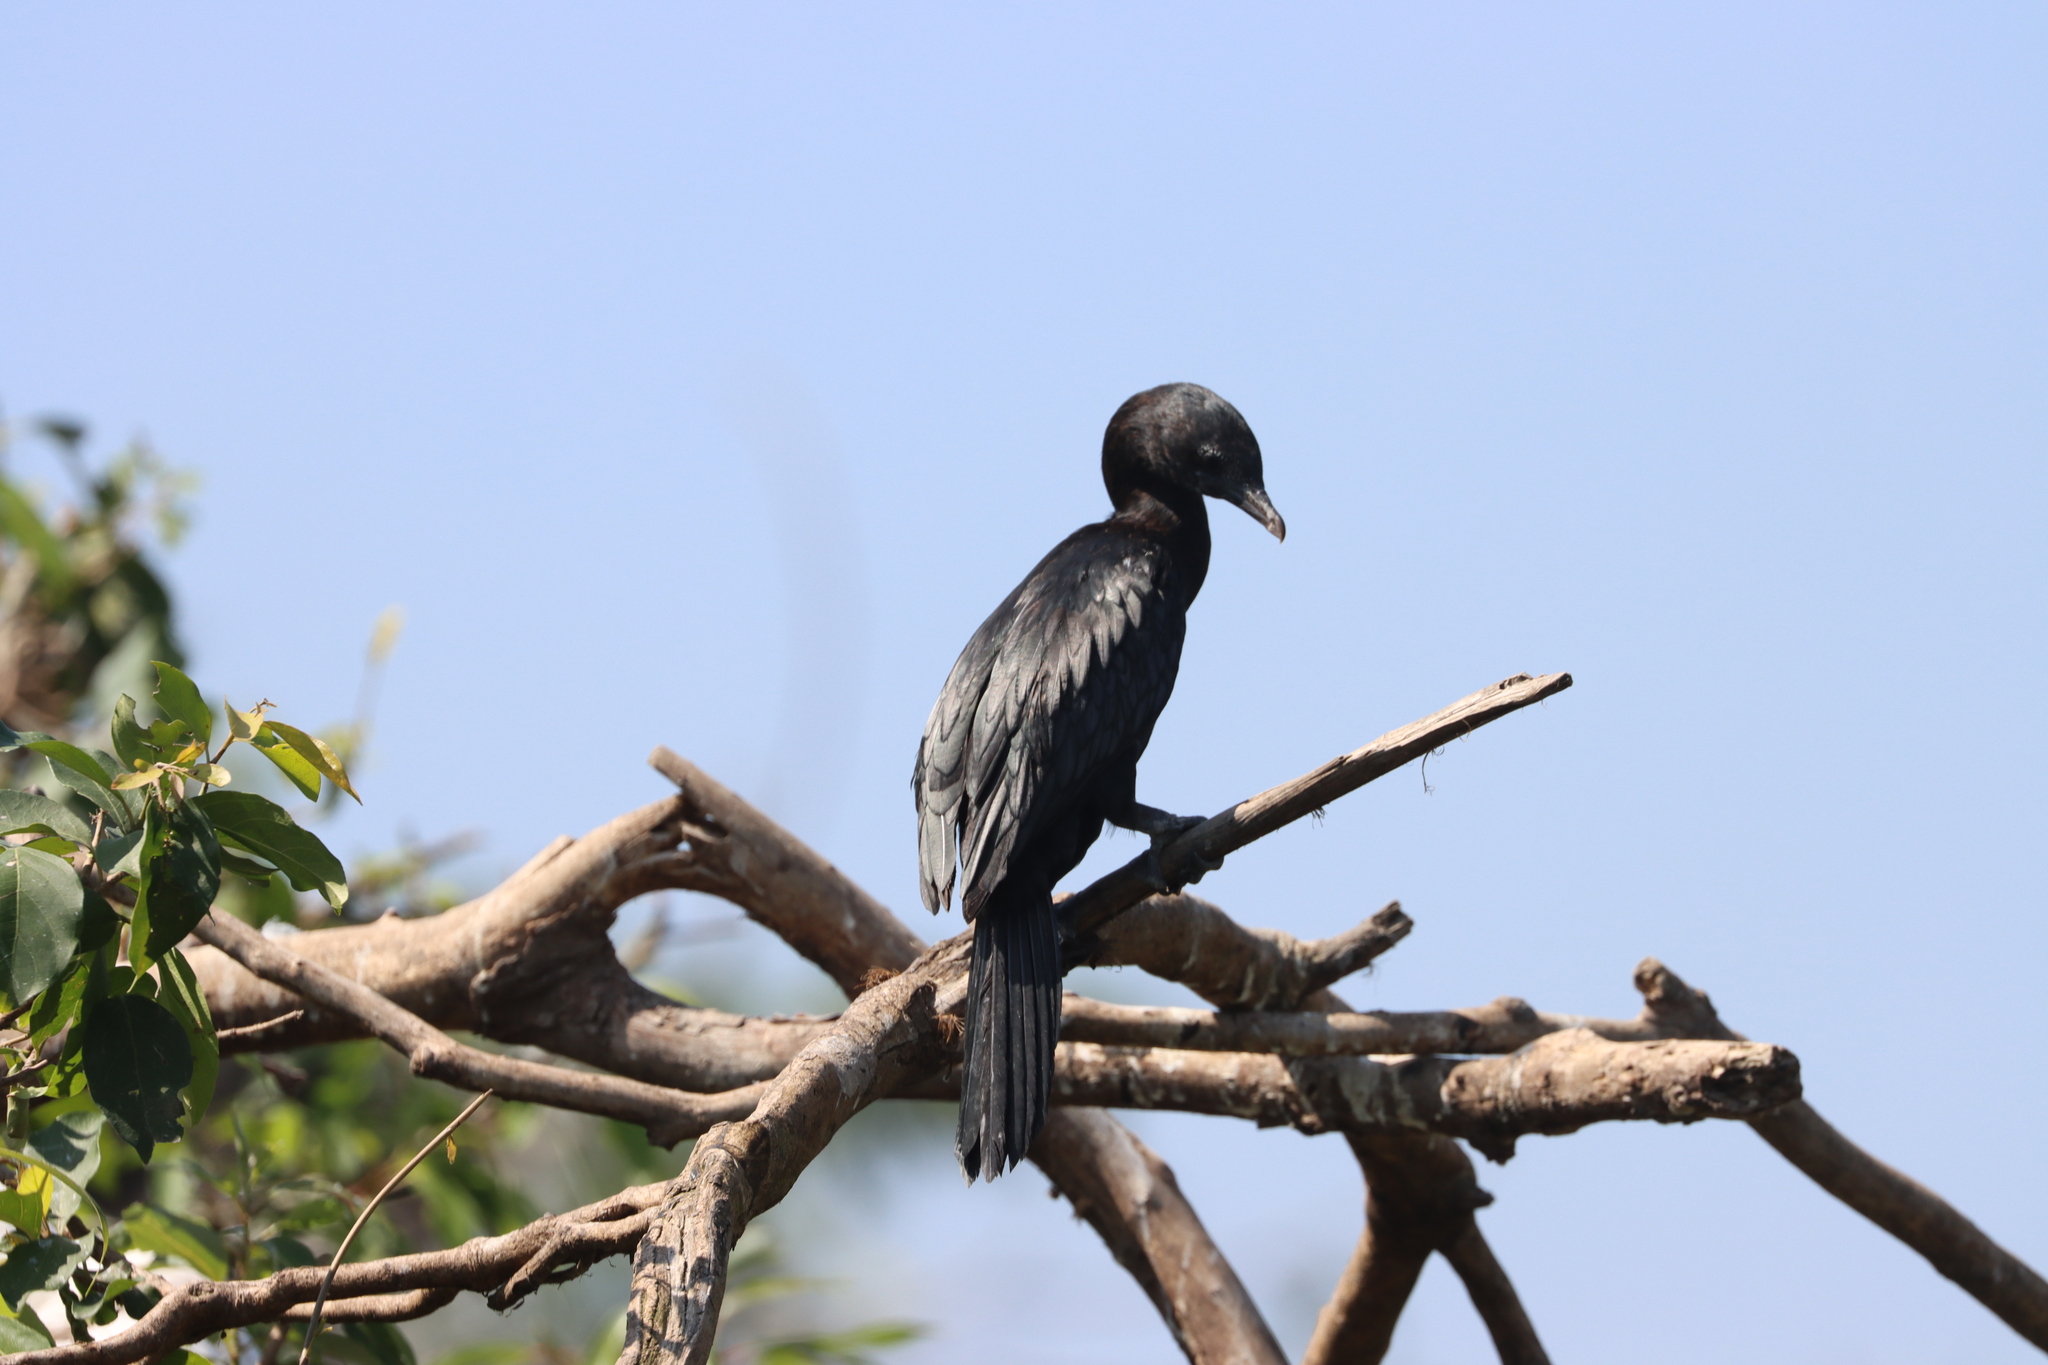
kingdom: Animalia
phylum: Chordata
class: Aves
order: Suliformes
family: Phalacrocoracidae
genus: Phalacrocorax
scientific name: Phalacrocorax fuscicollis
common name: Indian cormorant
